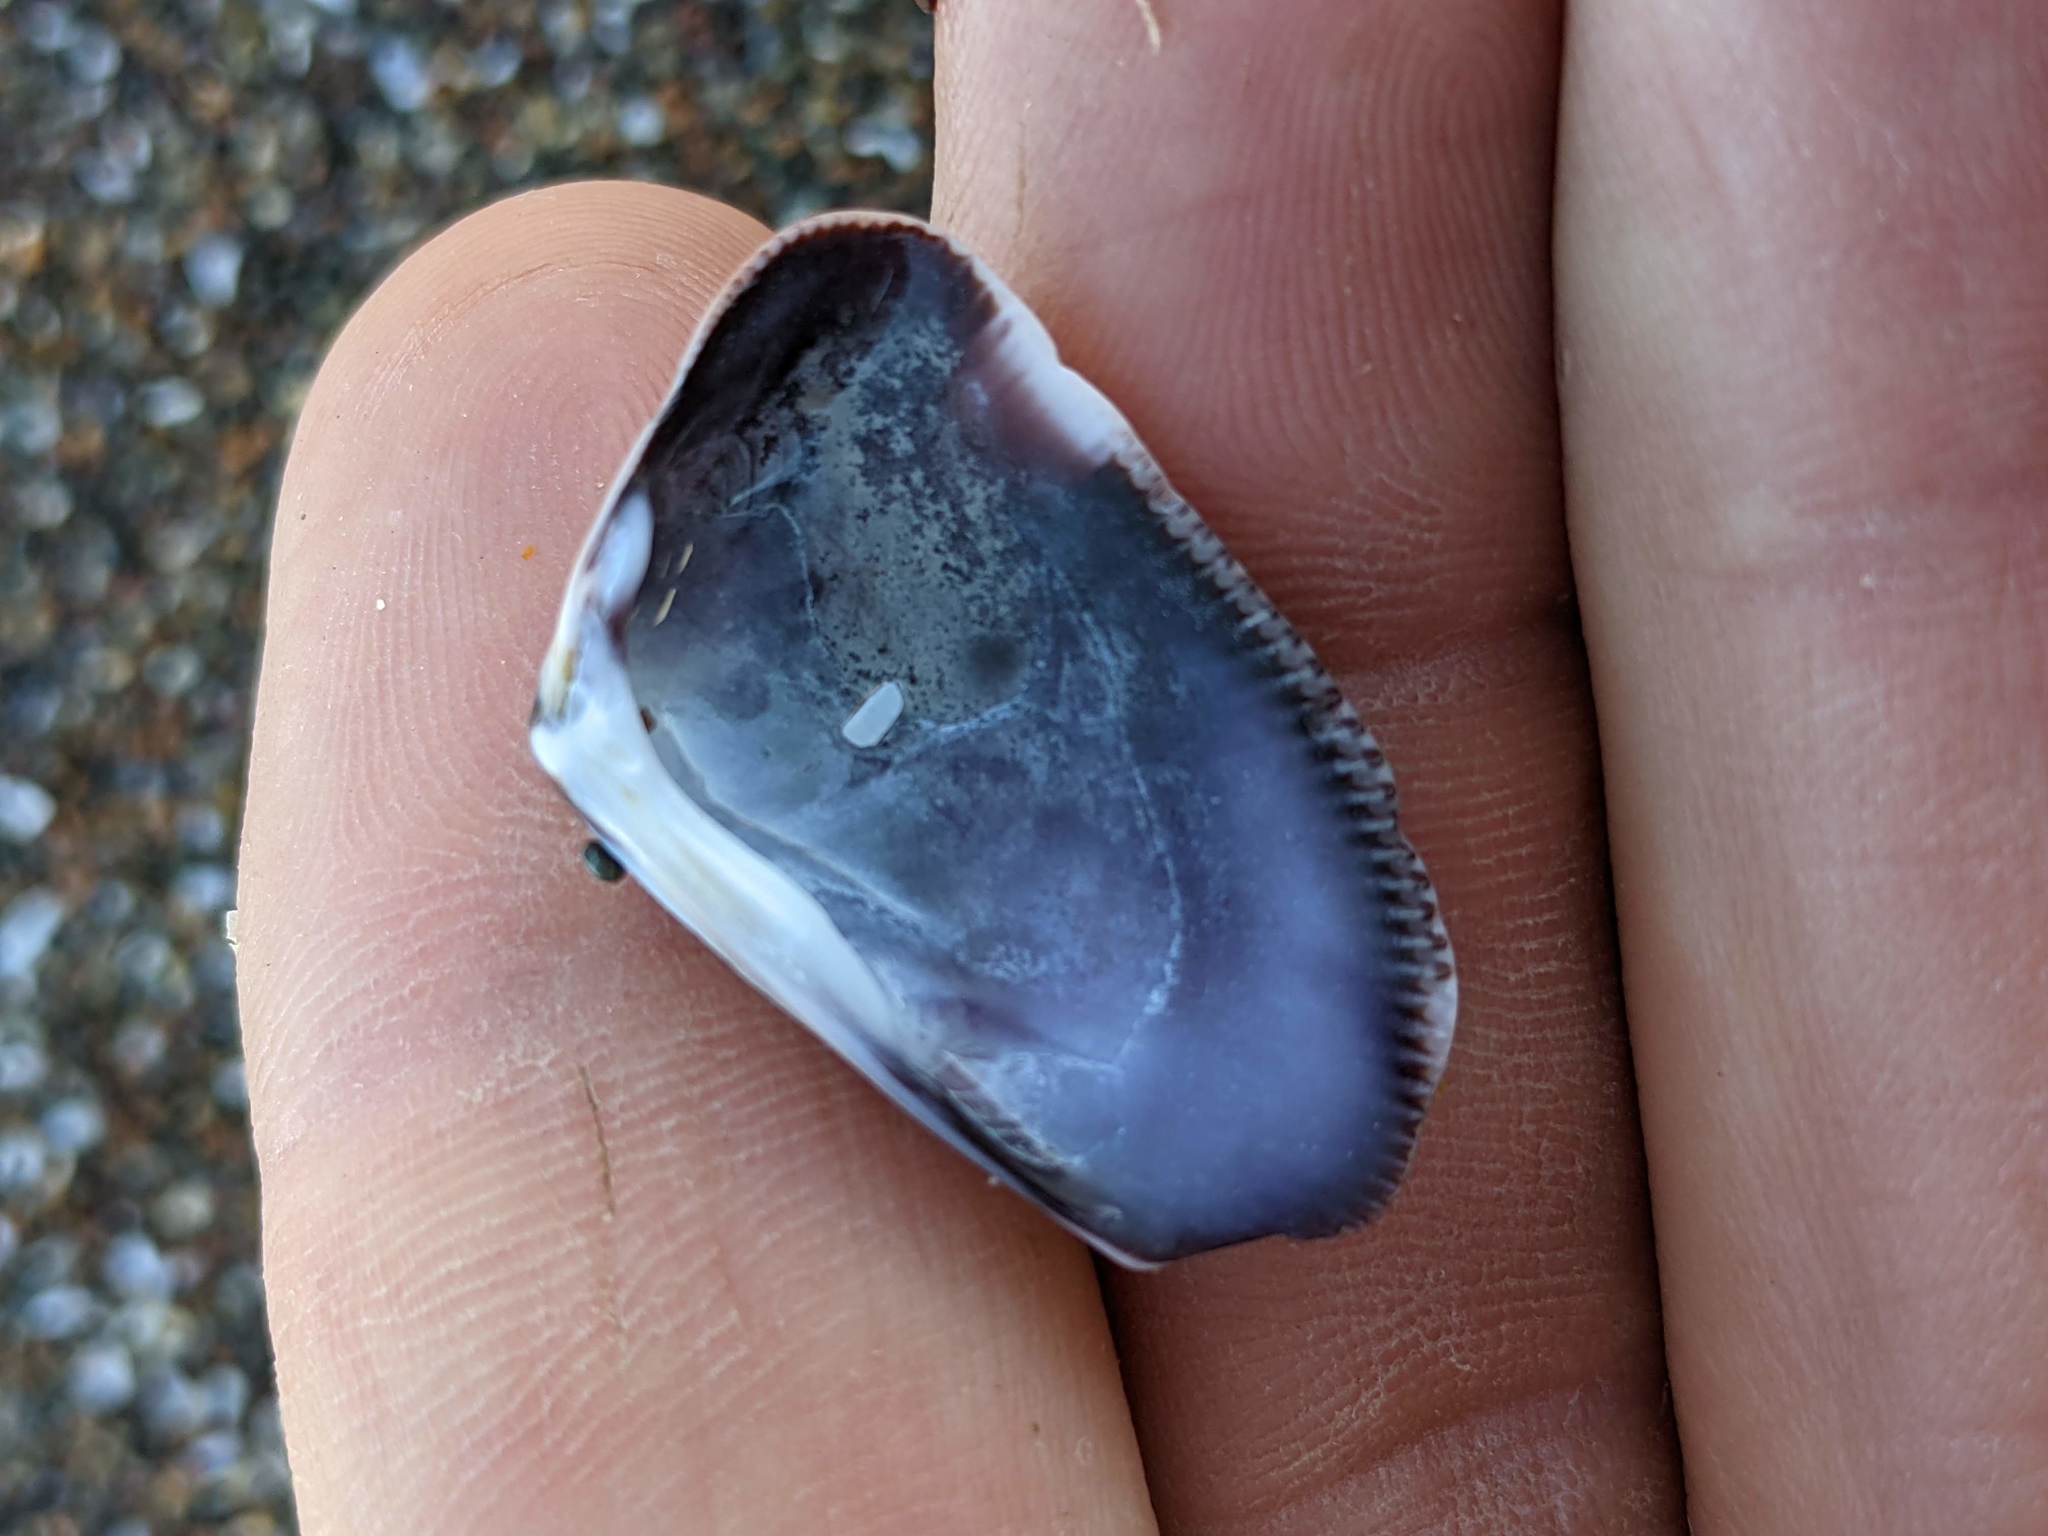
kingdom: Animalia
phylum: Mollusca
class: Bivalvia
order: Cardiida
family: Donacidae
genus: Donax
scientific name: Donax gouldii
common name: Gould beanclam
